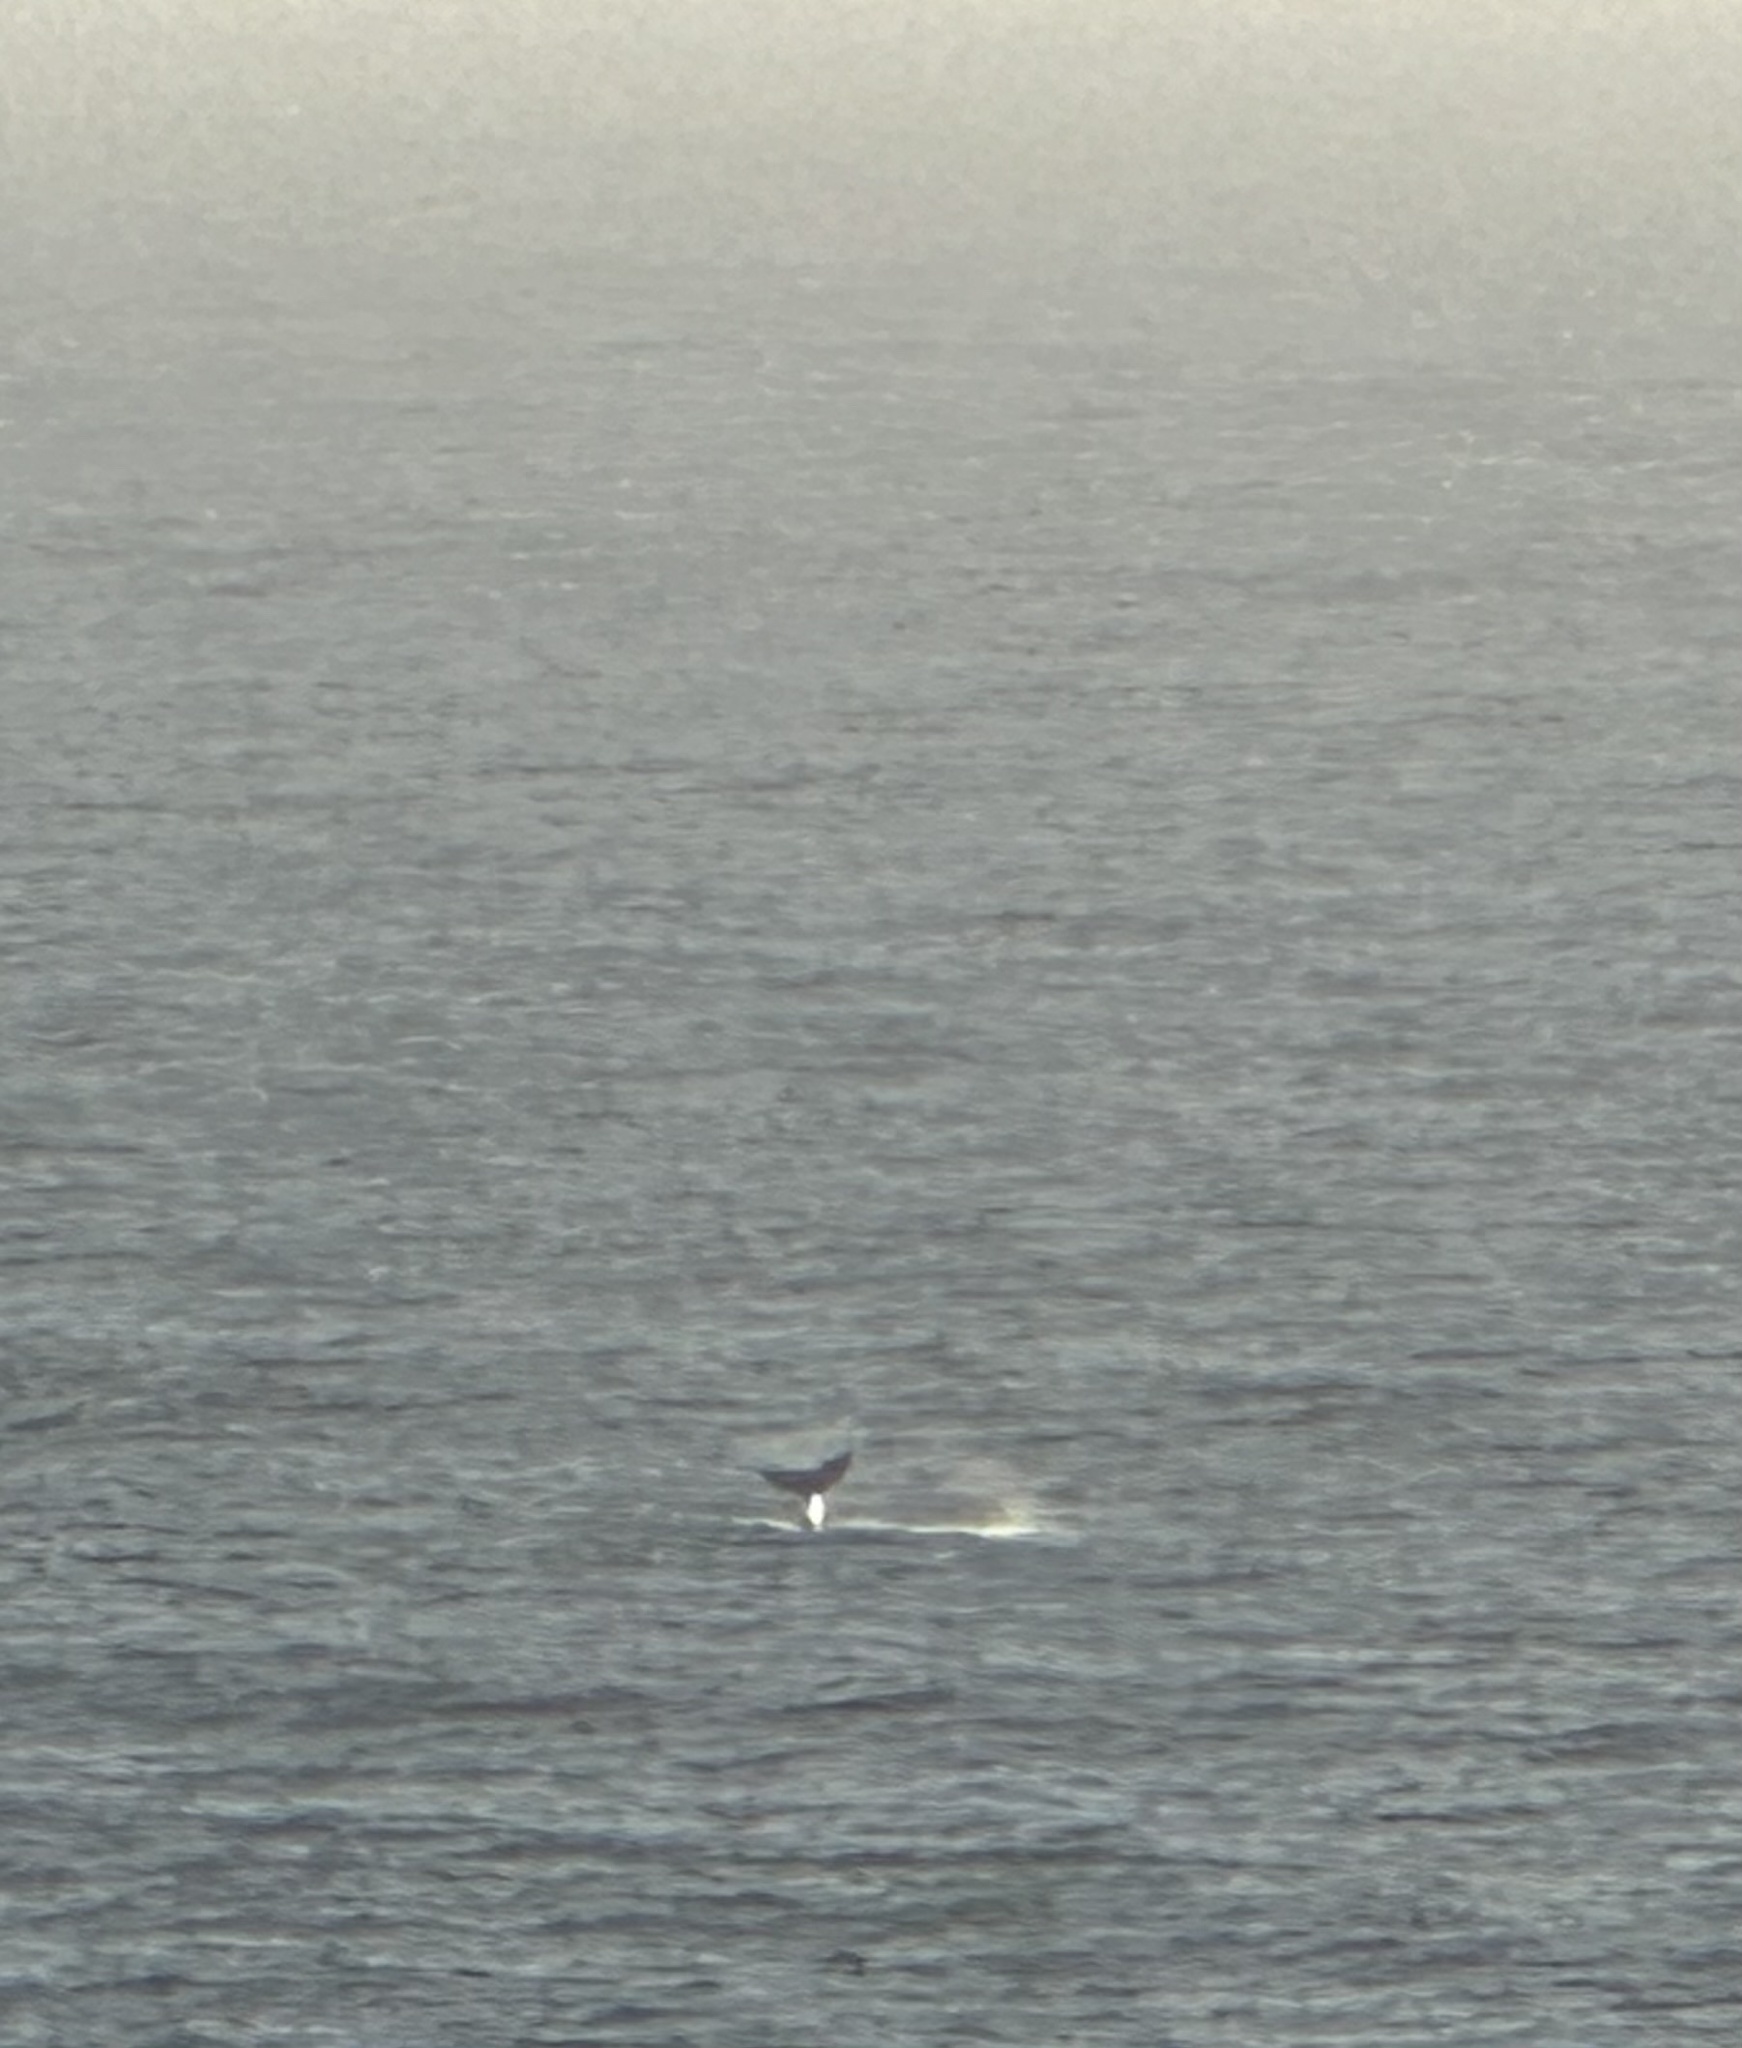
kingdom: Animalia
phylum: Chordata
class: Mammalia
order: Cetacea
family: Balaenopteridae
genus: Megaptera
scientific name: Megaptera novaeangliae
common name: Humpback whale
